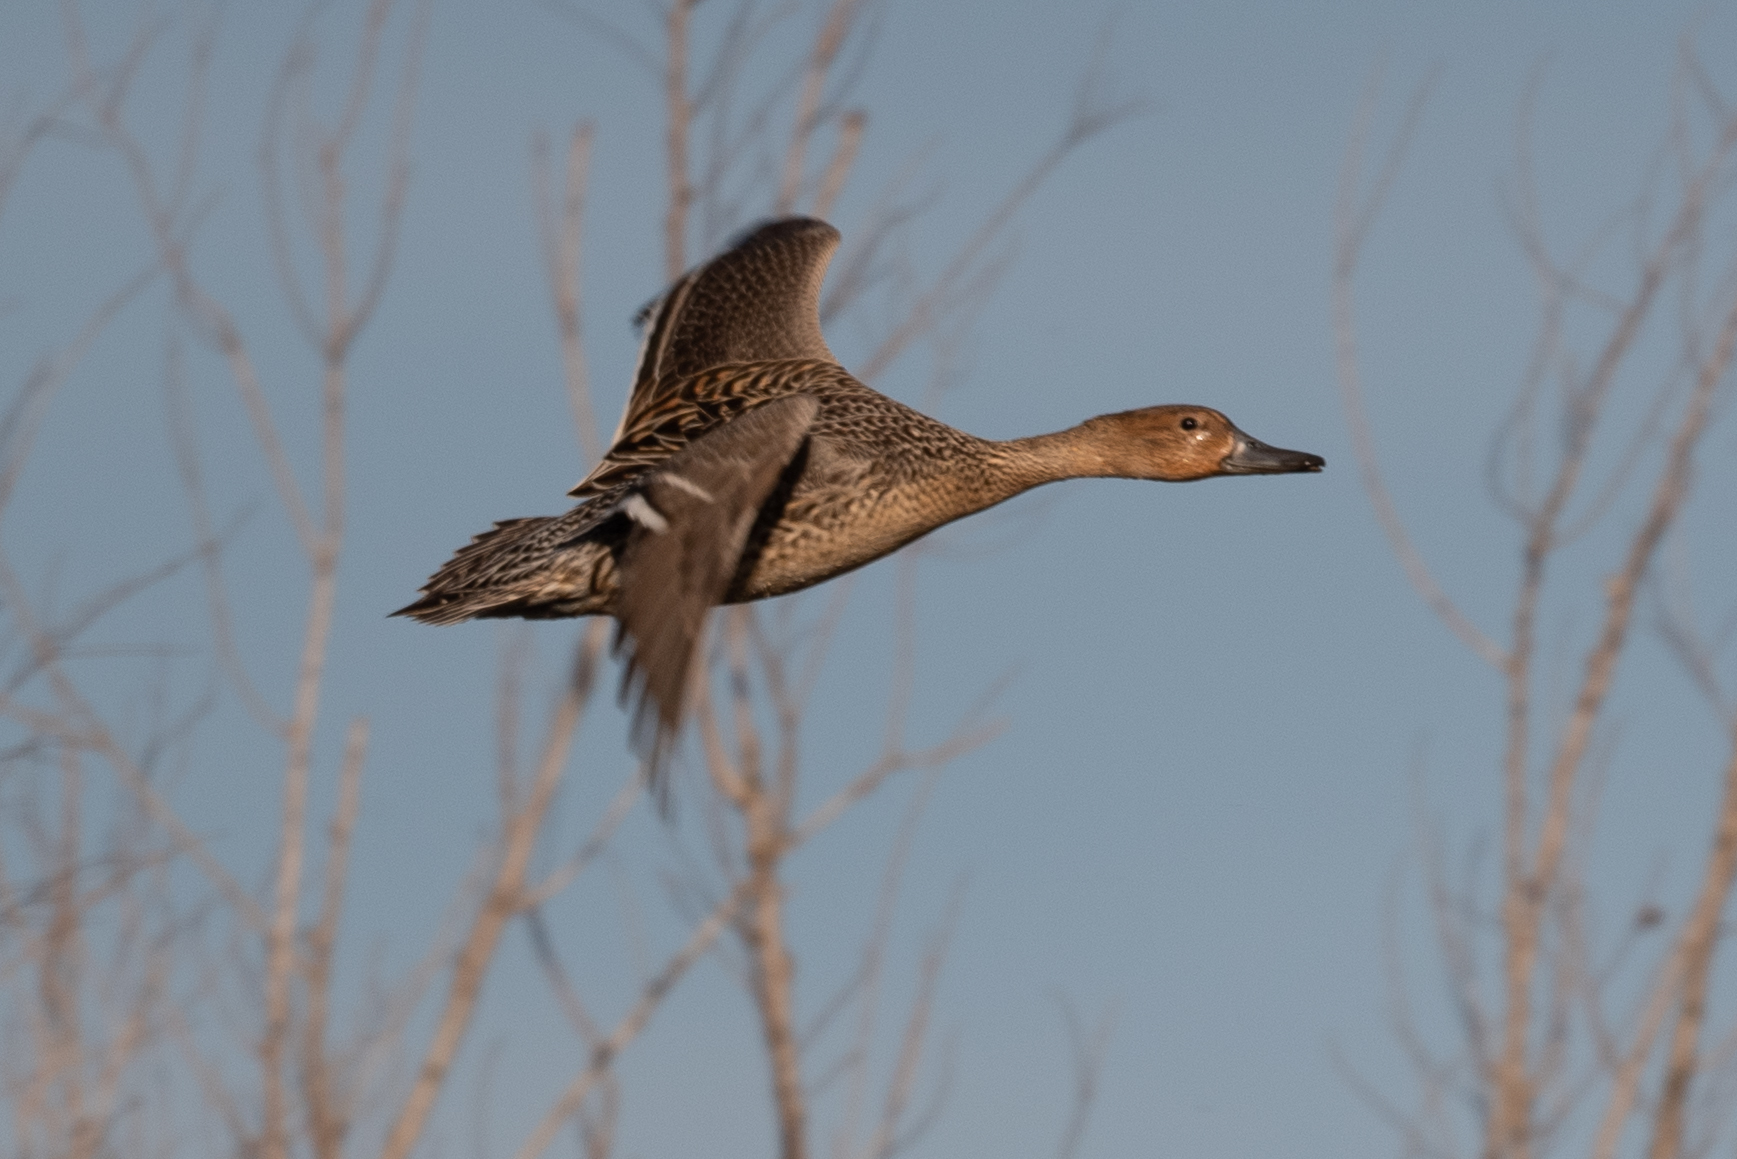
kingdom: Animalia
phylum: Chordata
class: Aves
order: Anseriformes
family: Anatidae
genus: Anas
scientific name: Anas acuta
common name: Northern pintail
